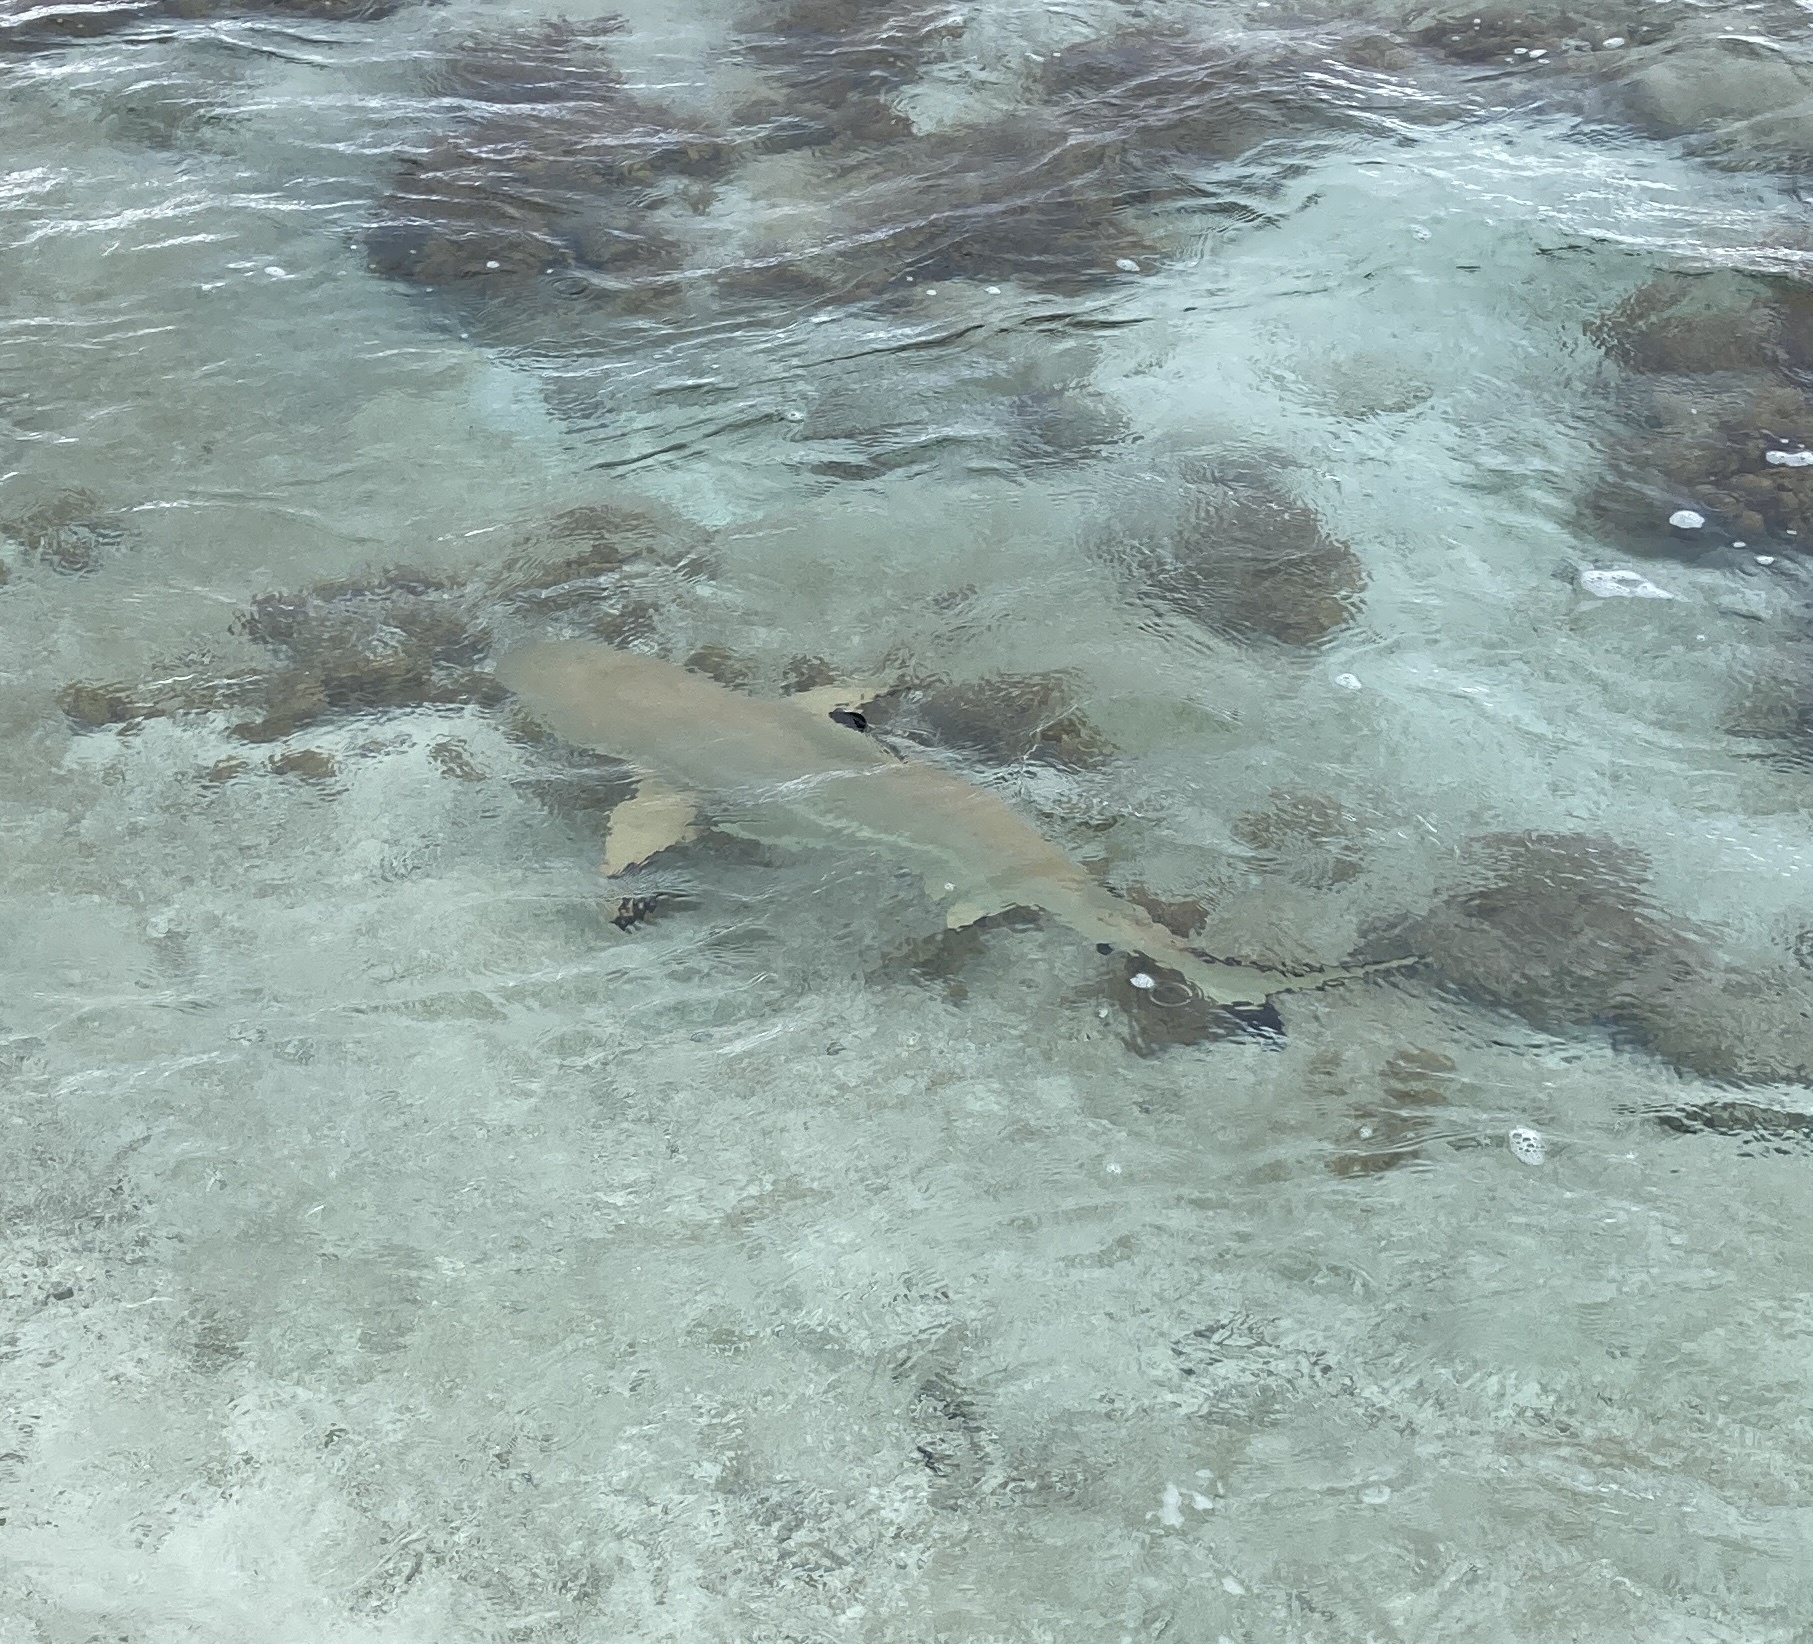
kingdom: Animalia
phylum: Chordata
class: Elasmobranchii
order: Carcharhiniformes
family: Carcharhinidae
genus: Carcharhinus
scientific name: Carcharhinus melanopterus
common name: Blacktip reef shark
